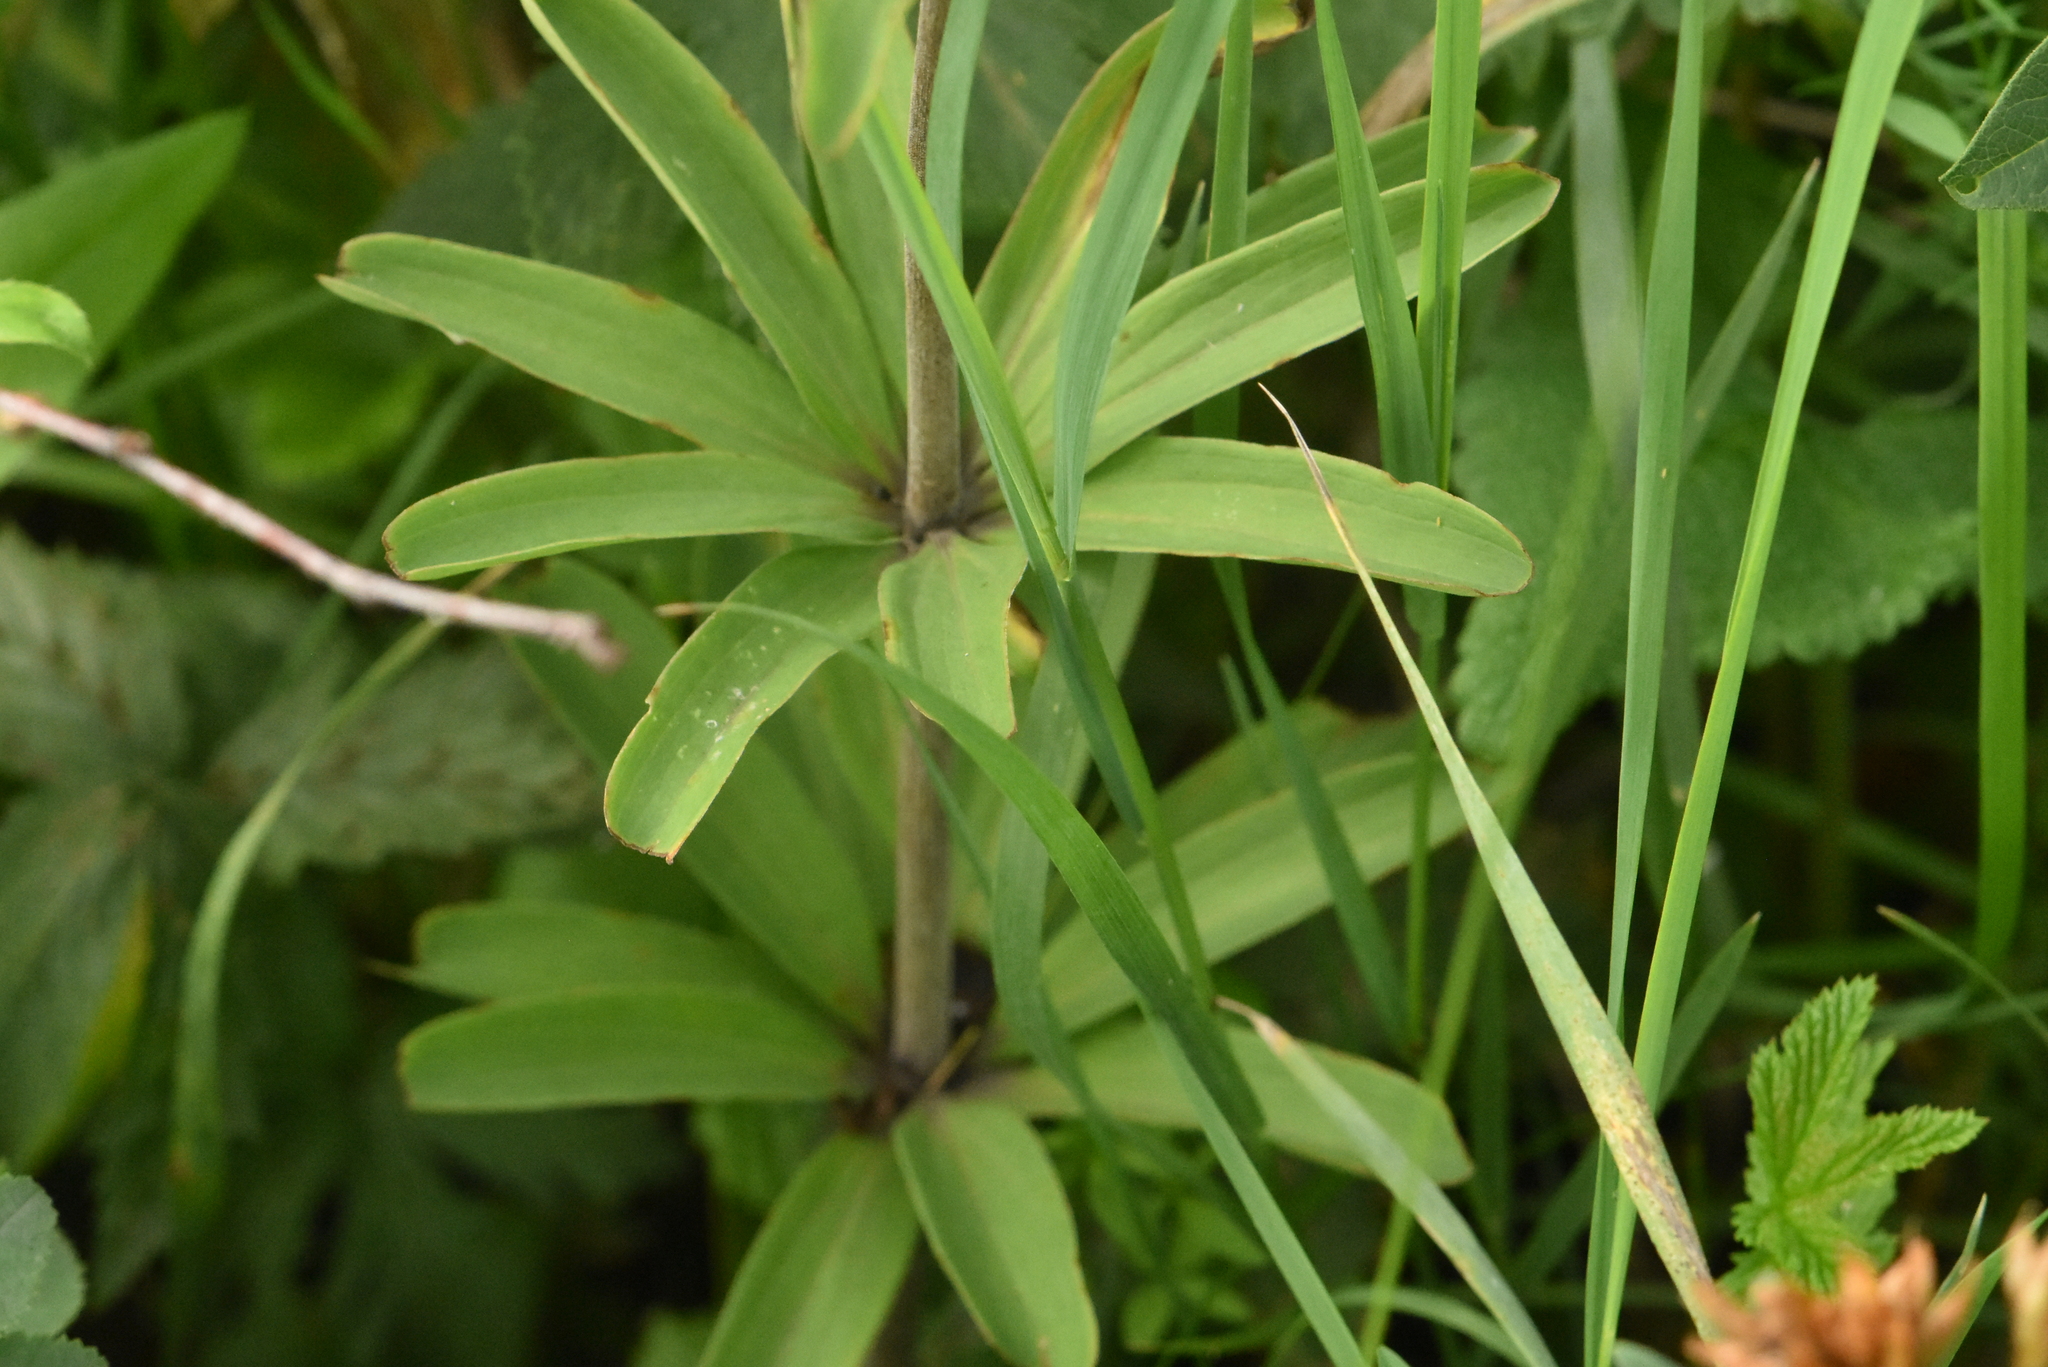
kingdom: Plantae
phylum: Tracheophyta
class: Liliopsida
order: Liliales
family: Liliaceae
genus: Lilium
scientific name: Lilium martagon
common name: Martagon lily
